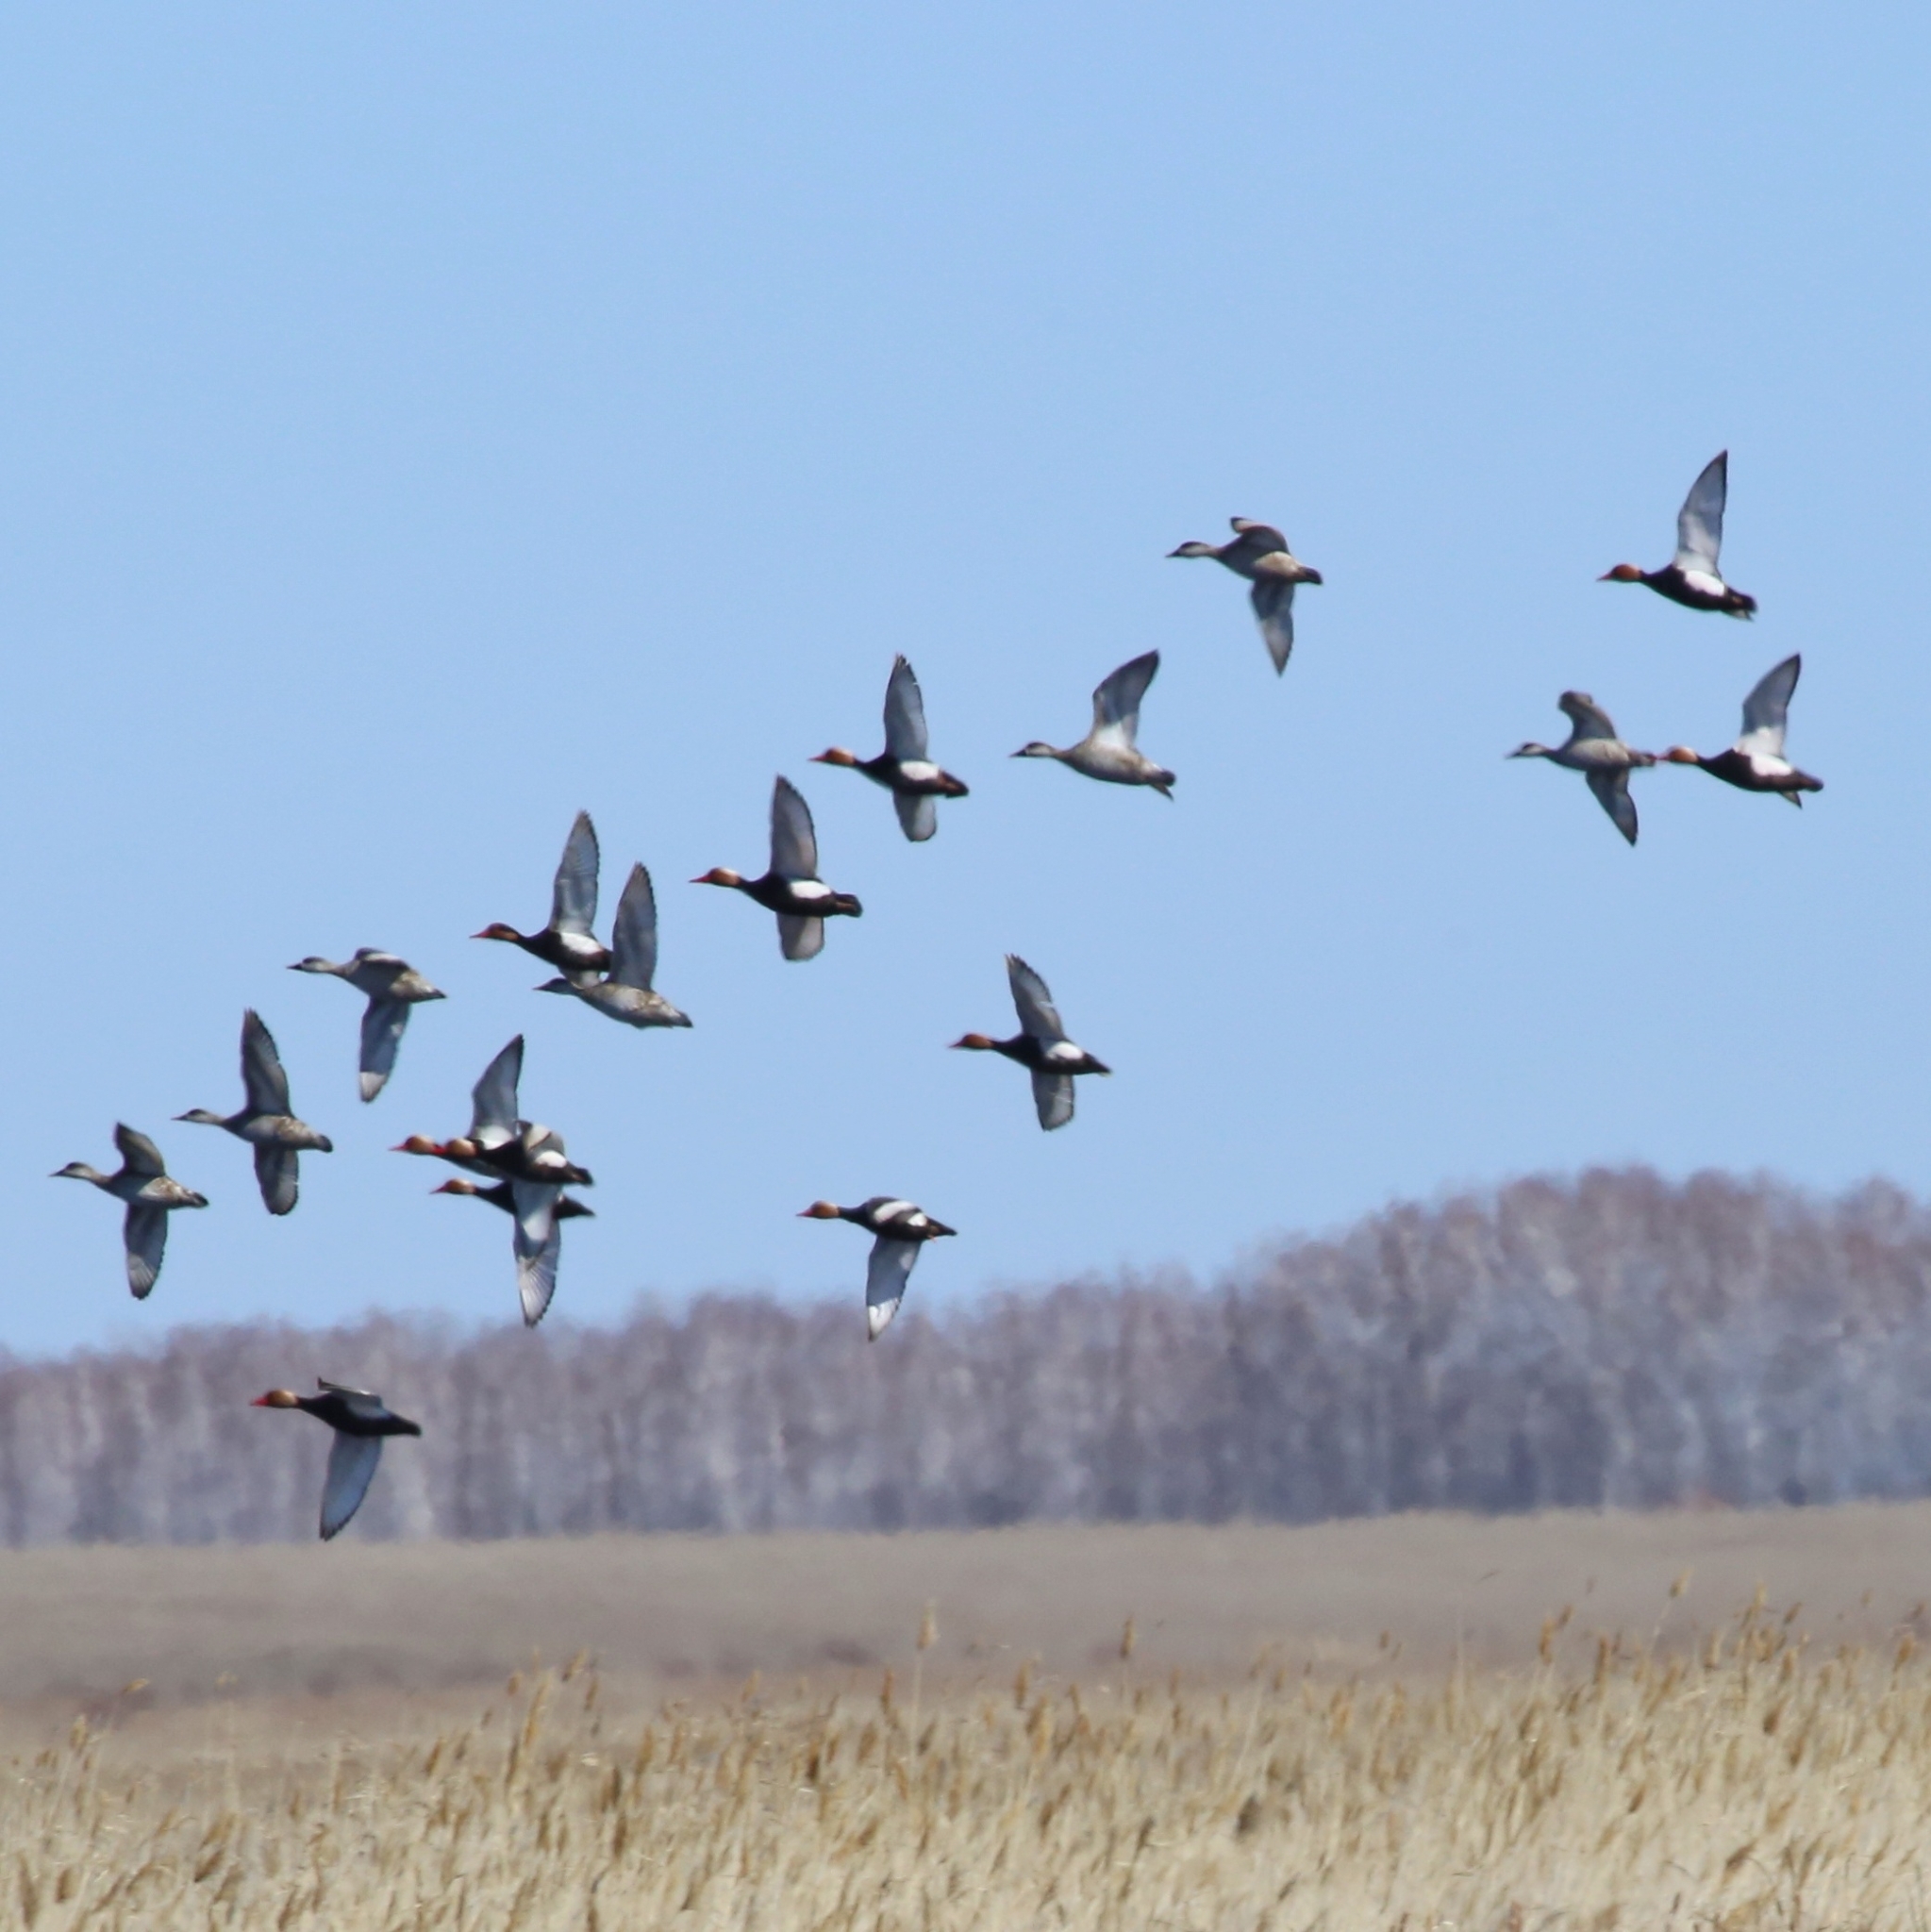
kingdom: Animalia
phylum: Chordata
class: Aves
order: Anseriformes
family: Anatidae
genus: Netta
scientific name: Netta rufina
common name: Red-crested pochard
